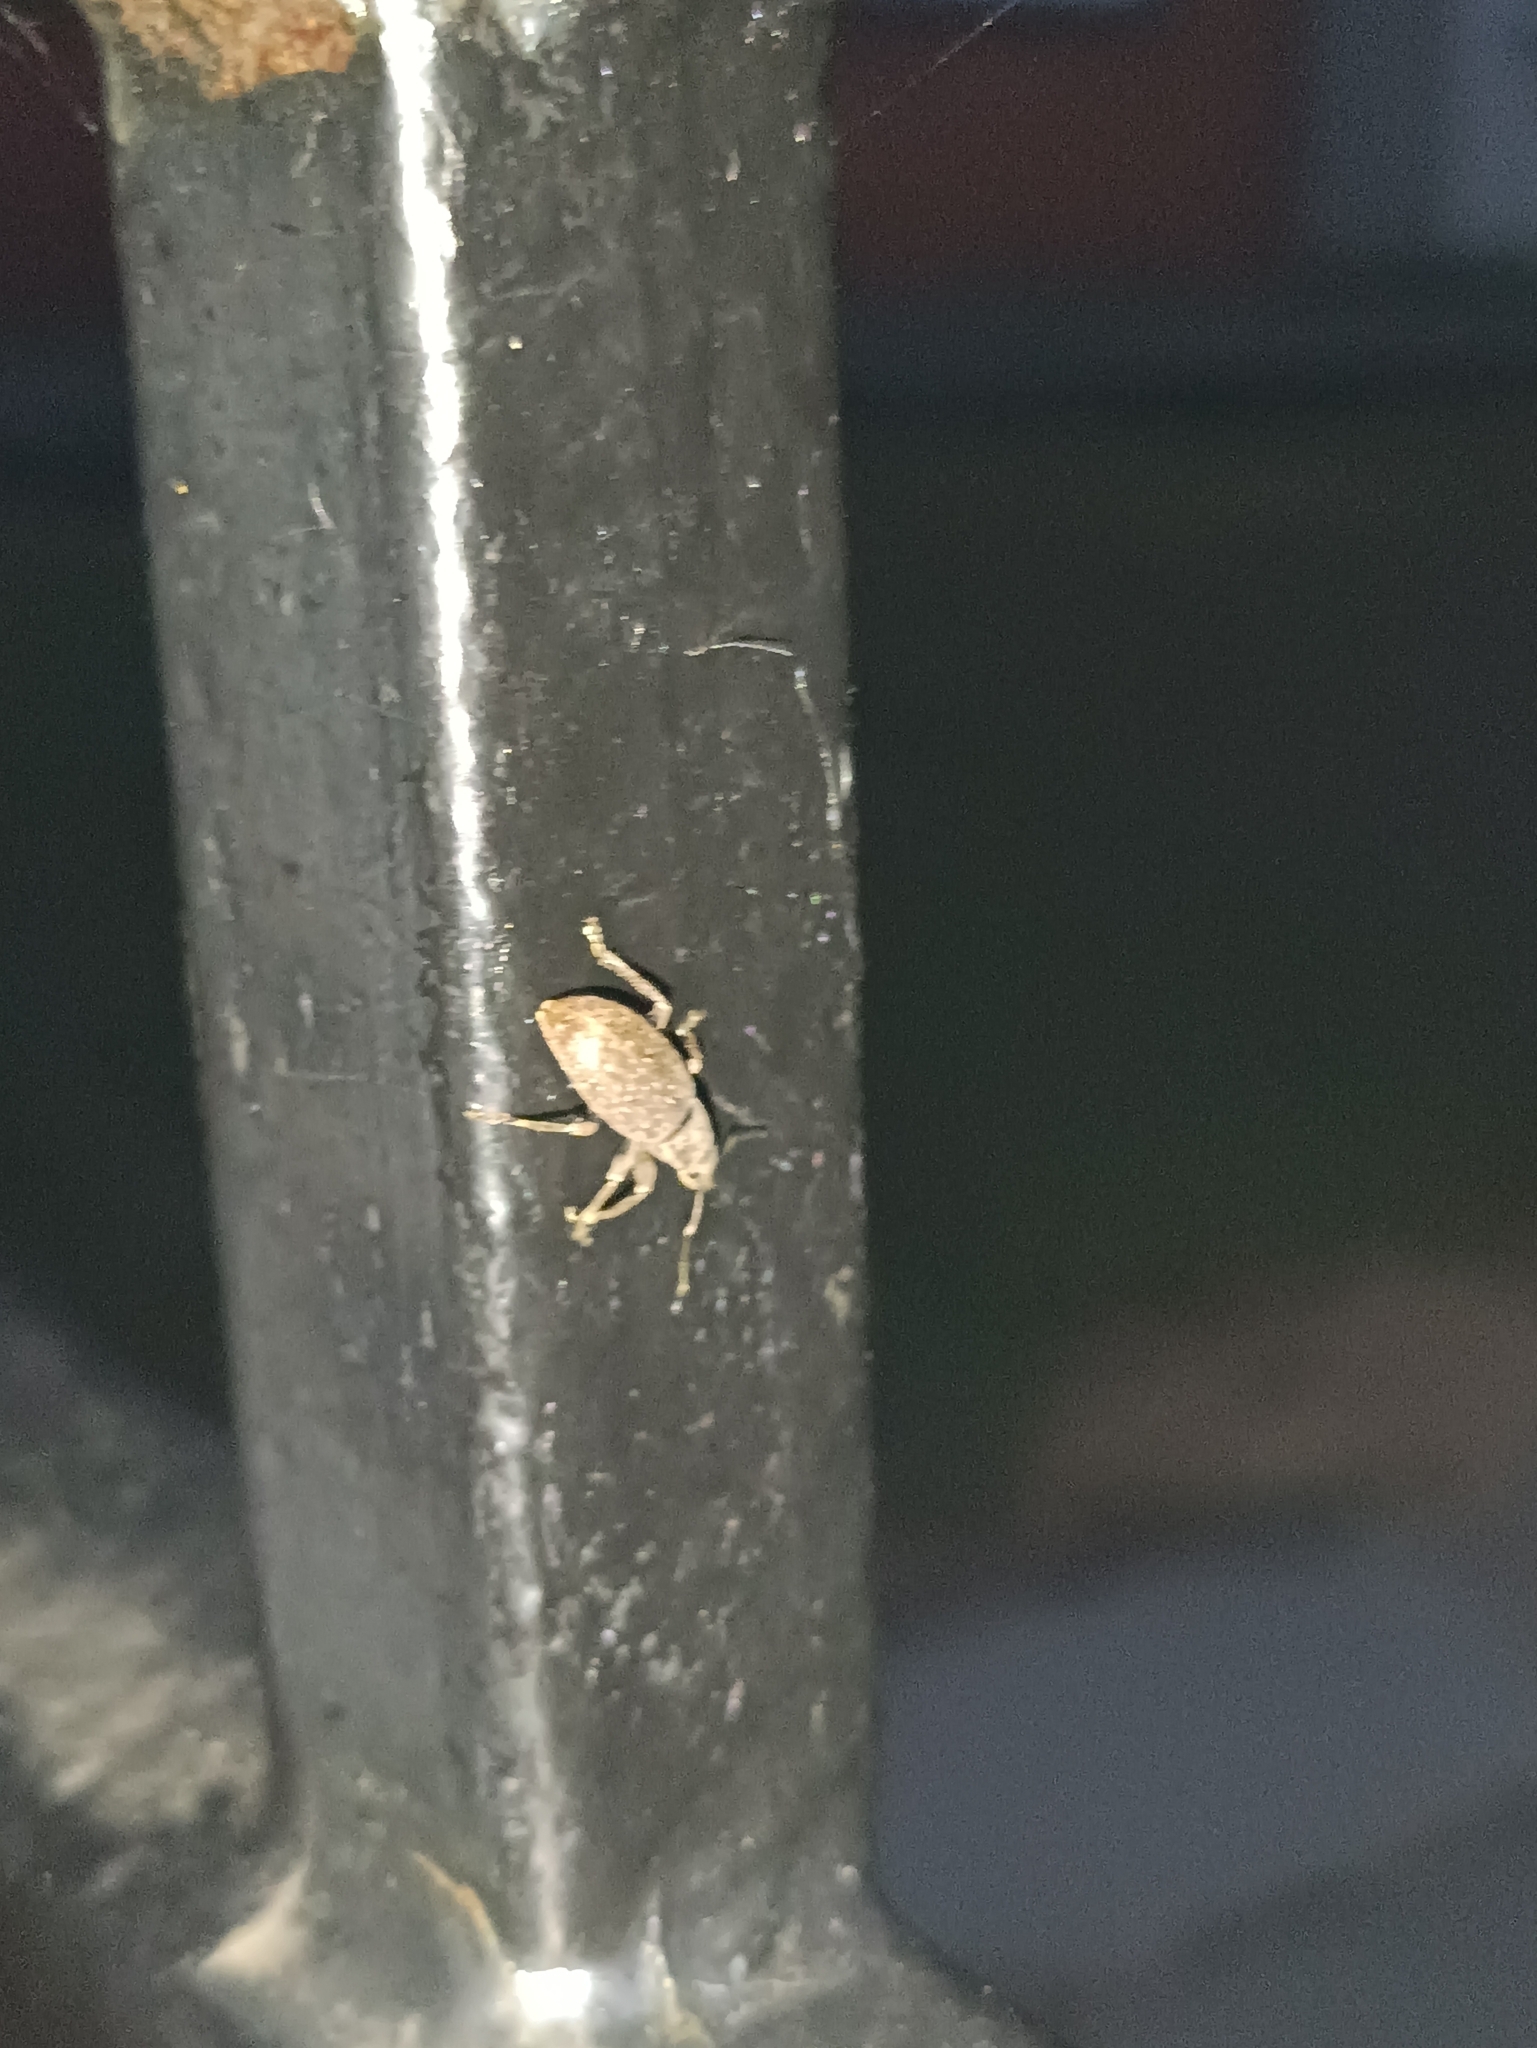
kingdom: Animalia
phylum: Arthropoda
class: Insecta
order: Coleoptera
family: Curculionidae
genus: Brachyderes
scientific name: Brachyderes incanus
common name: Weevil
